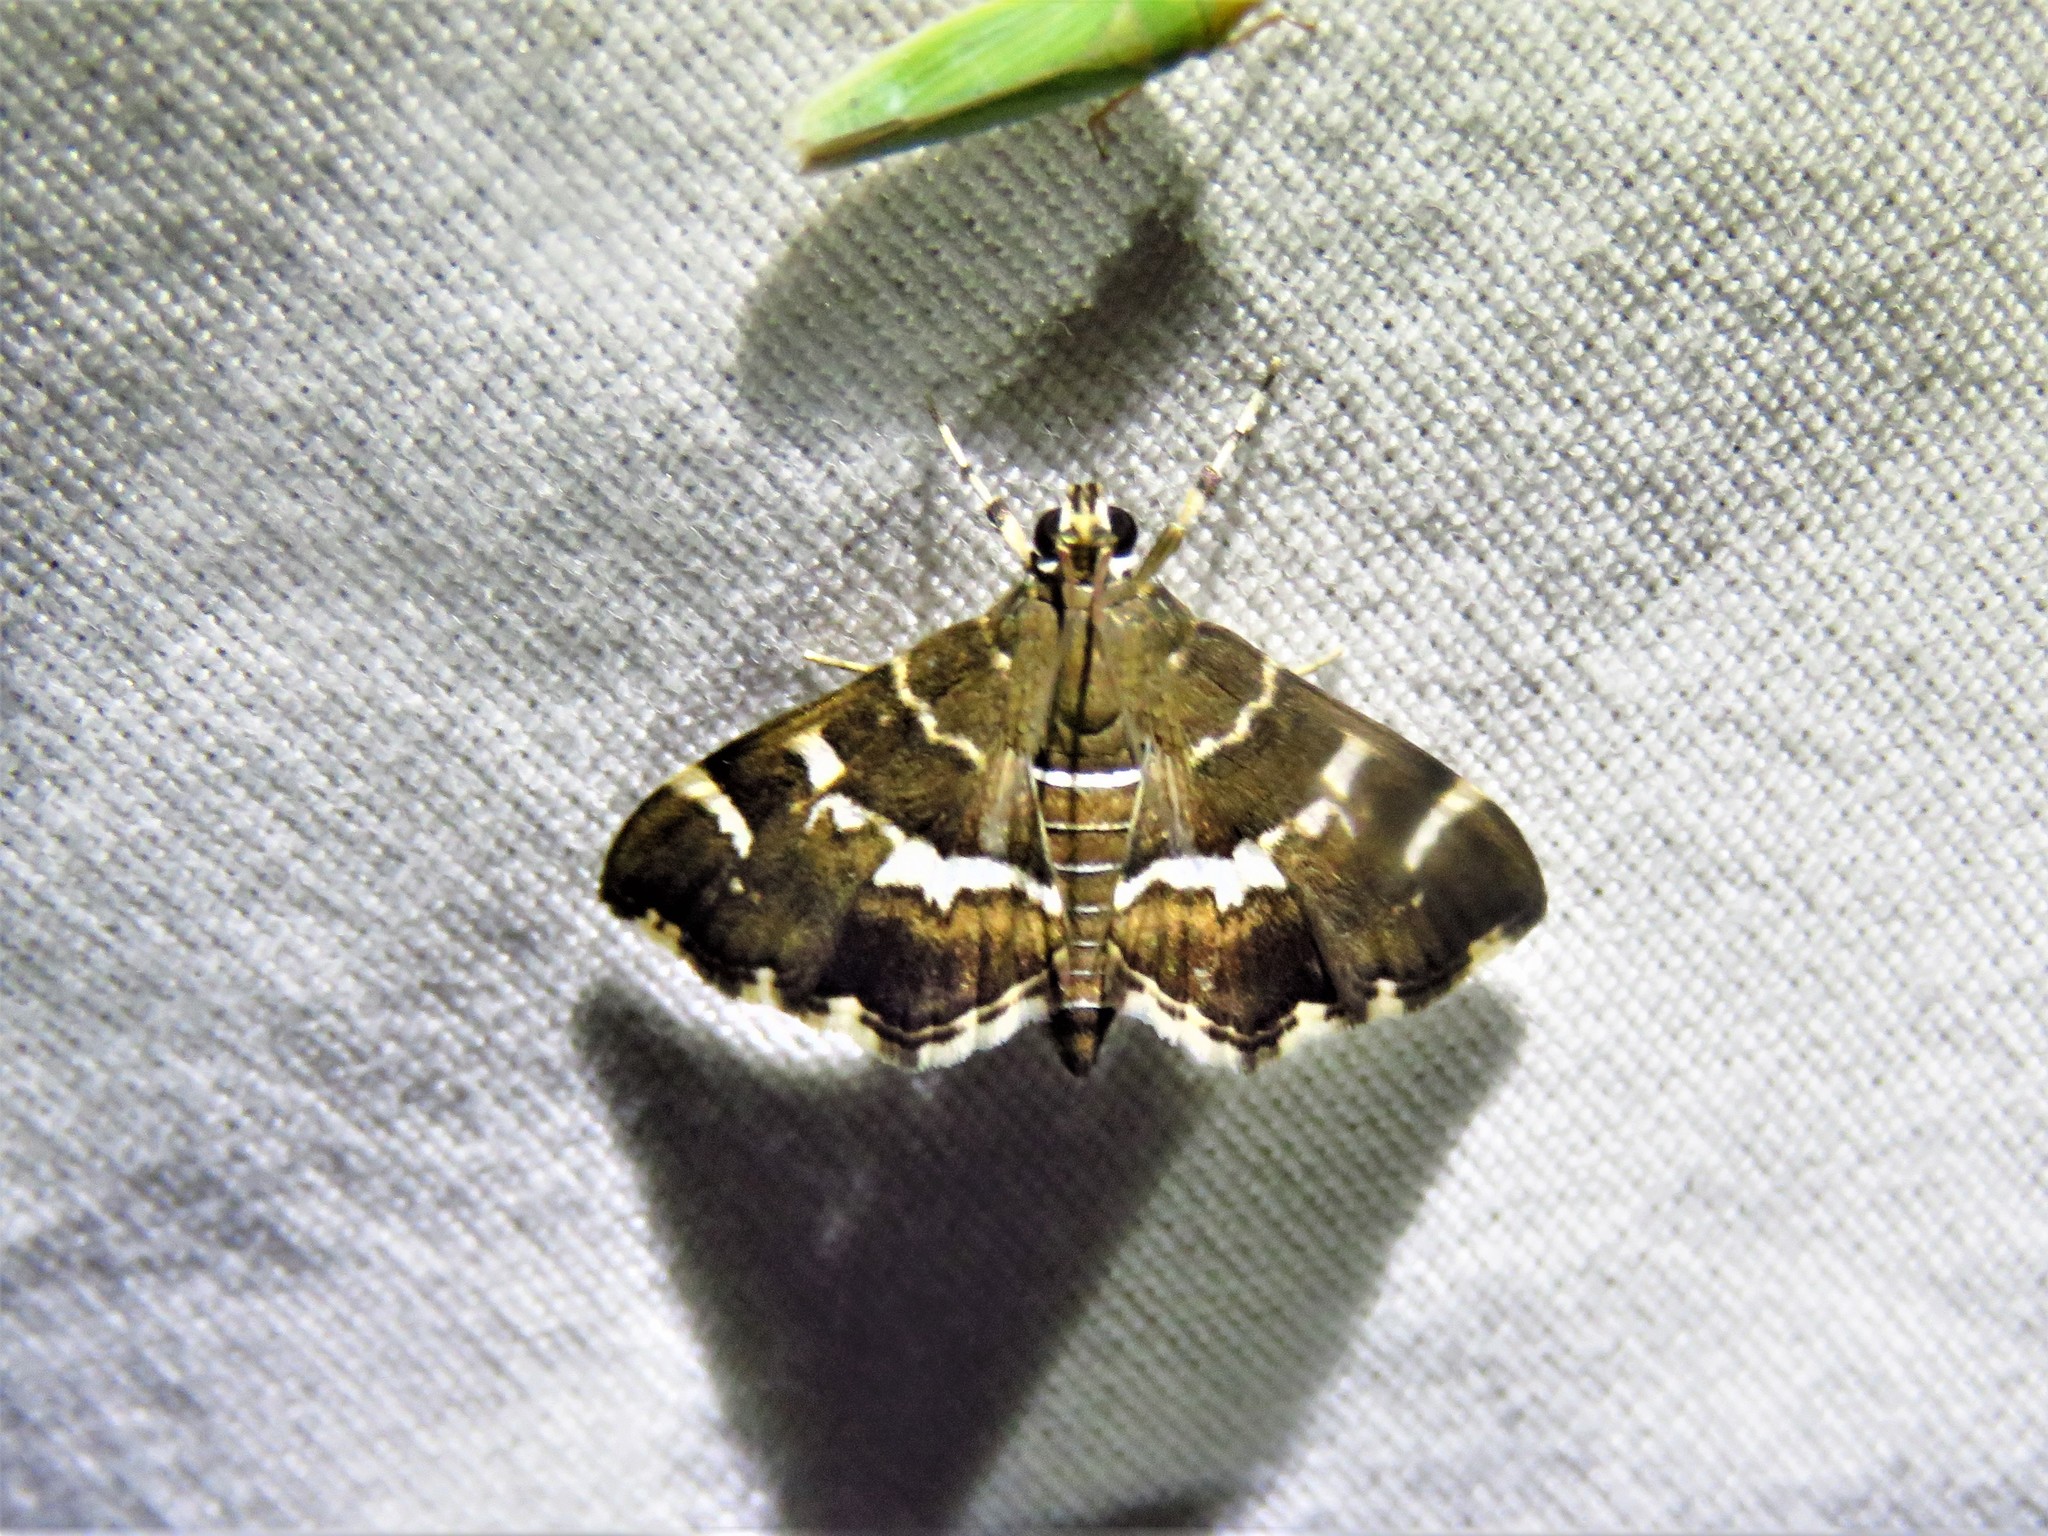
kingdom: Animalia
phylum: Arthropoda
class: Insecta
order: Lepidoptera
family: Crambidae
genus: Hymenia
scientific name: Hymenia perspectalis
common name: Spotted beet webworm
